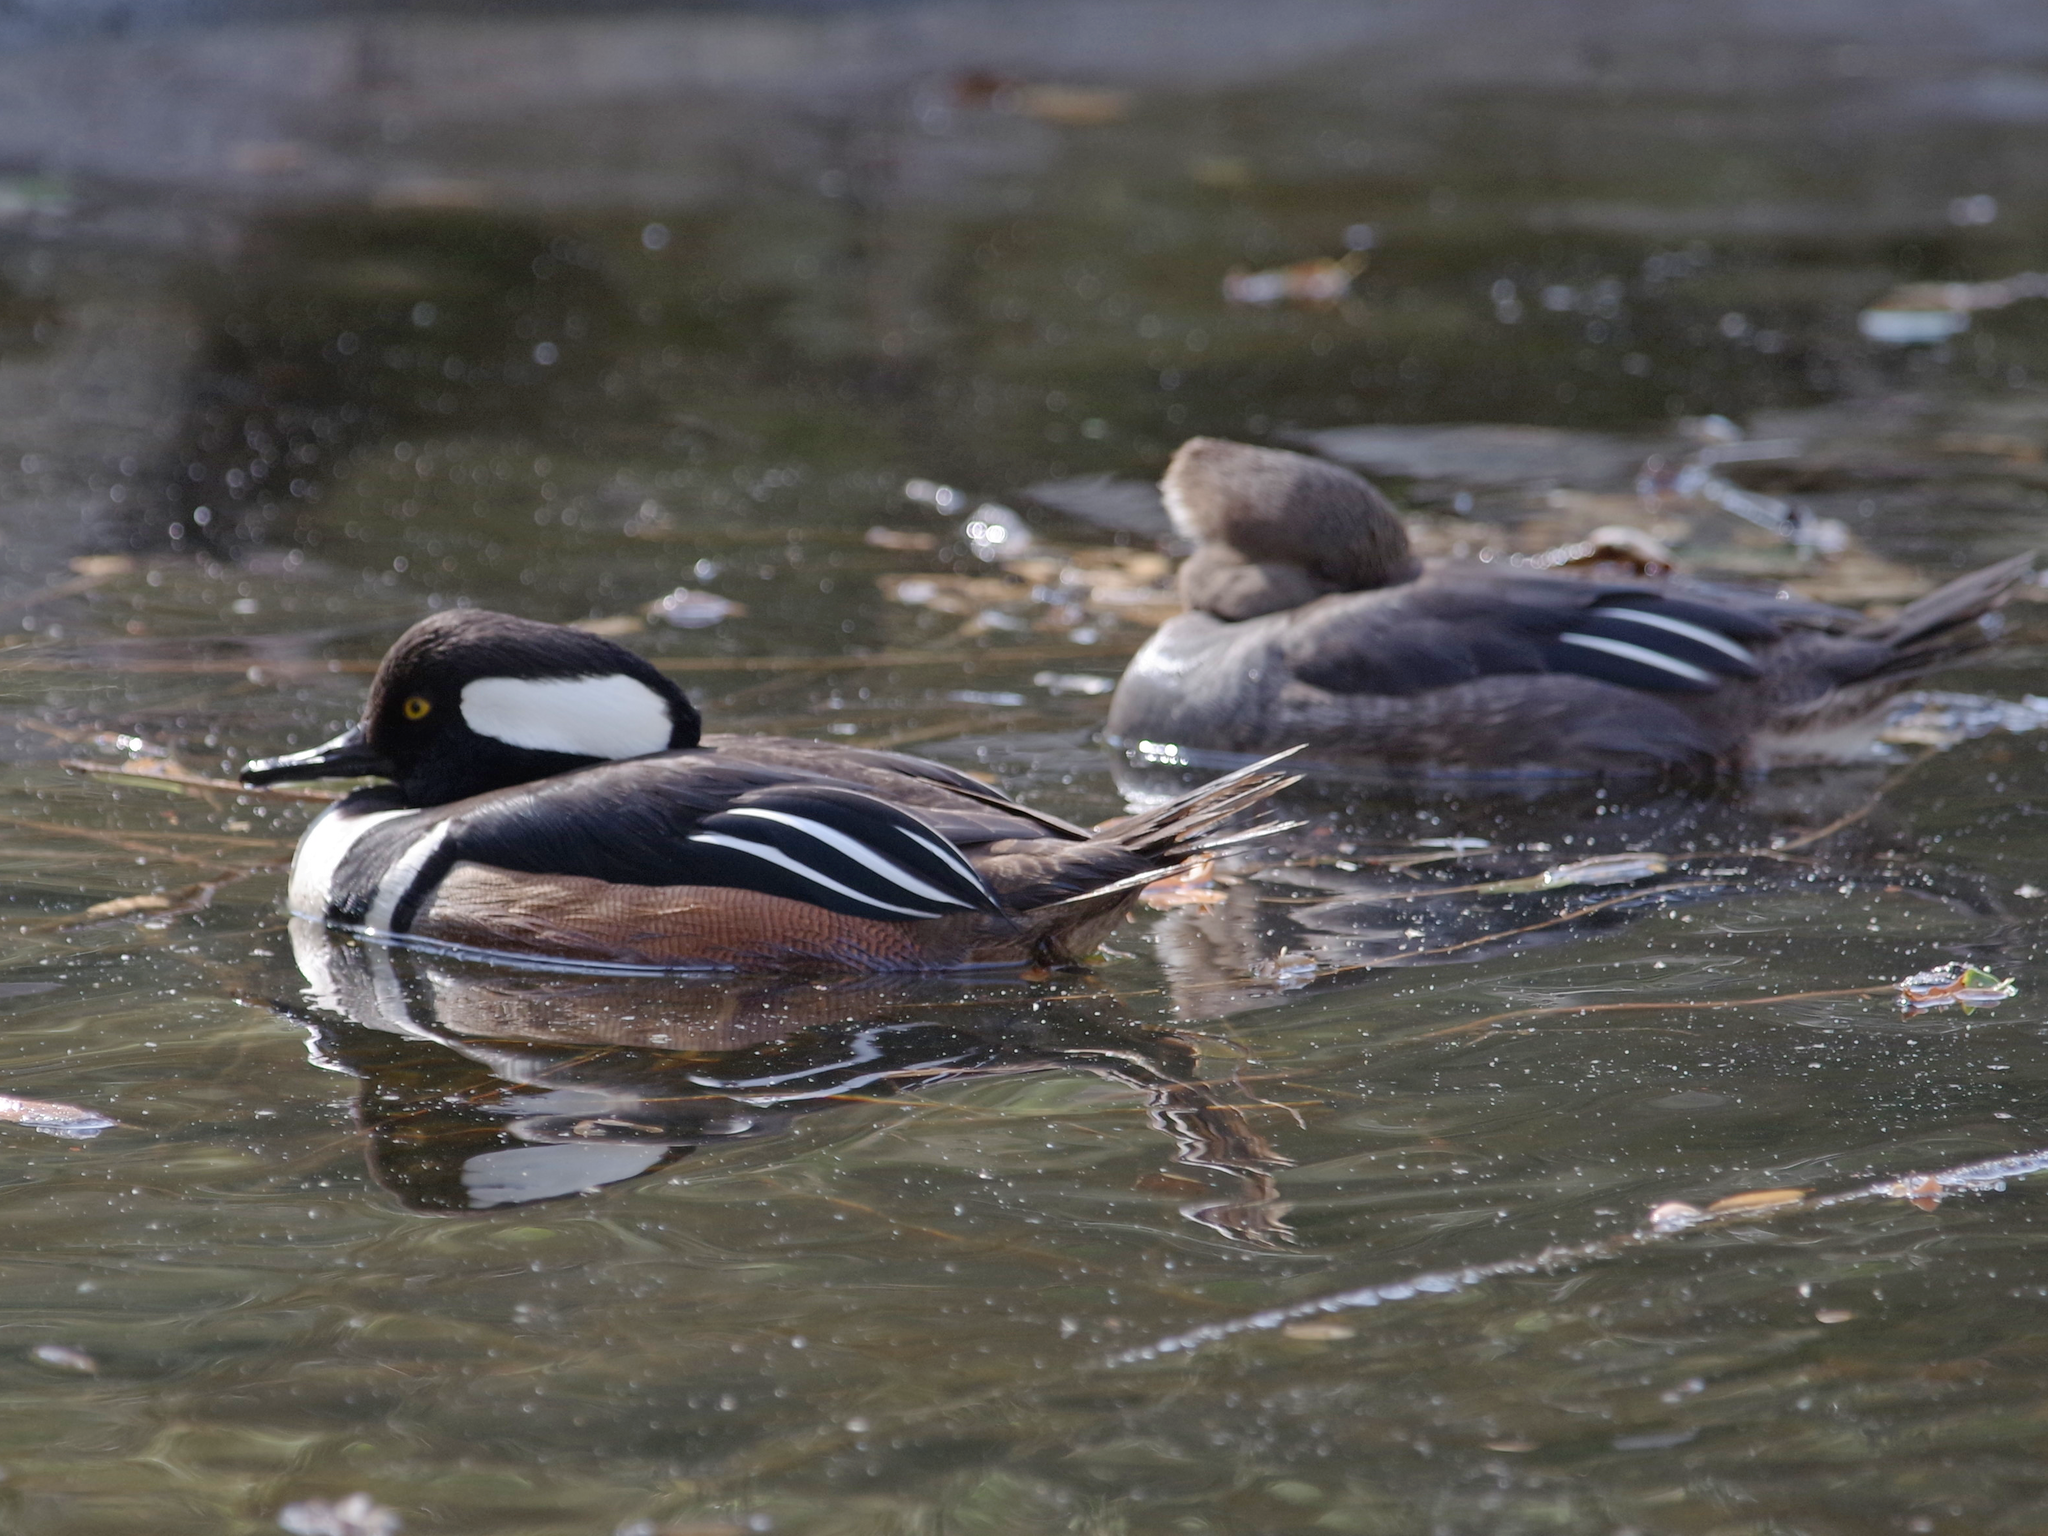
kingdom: Animalia
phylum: Chordata
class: Aves
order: Anseriformes
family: Anatidae
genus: Lophodytes
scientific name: Lophodytes cucullatus
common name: Hooded merganser
